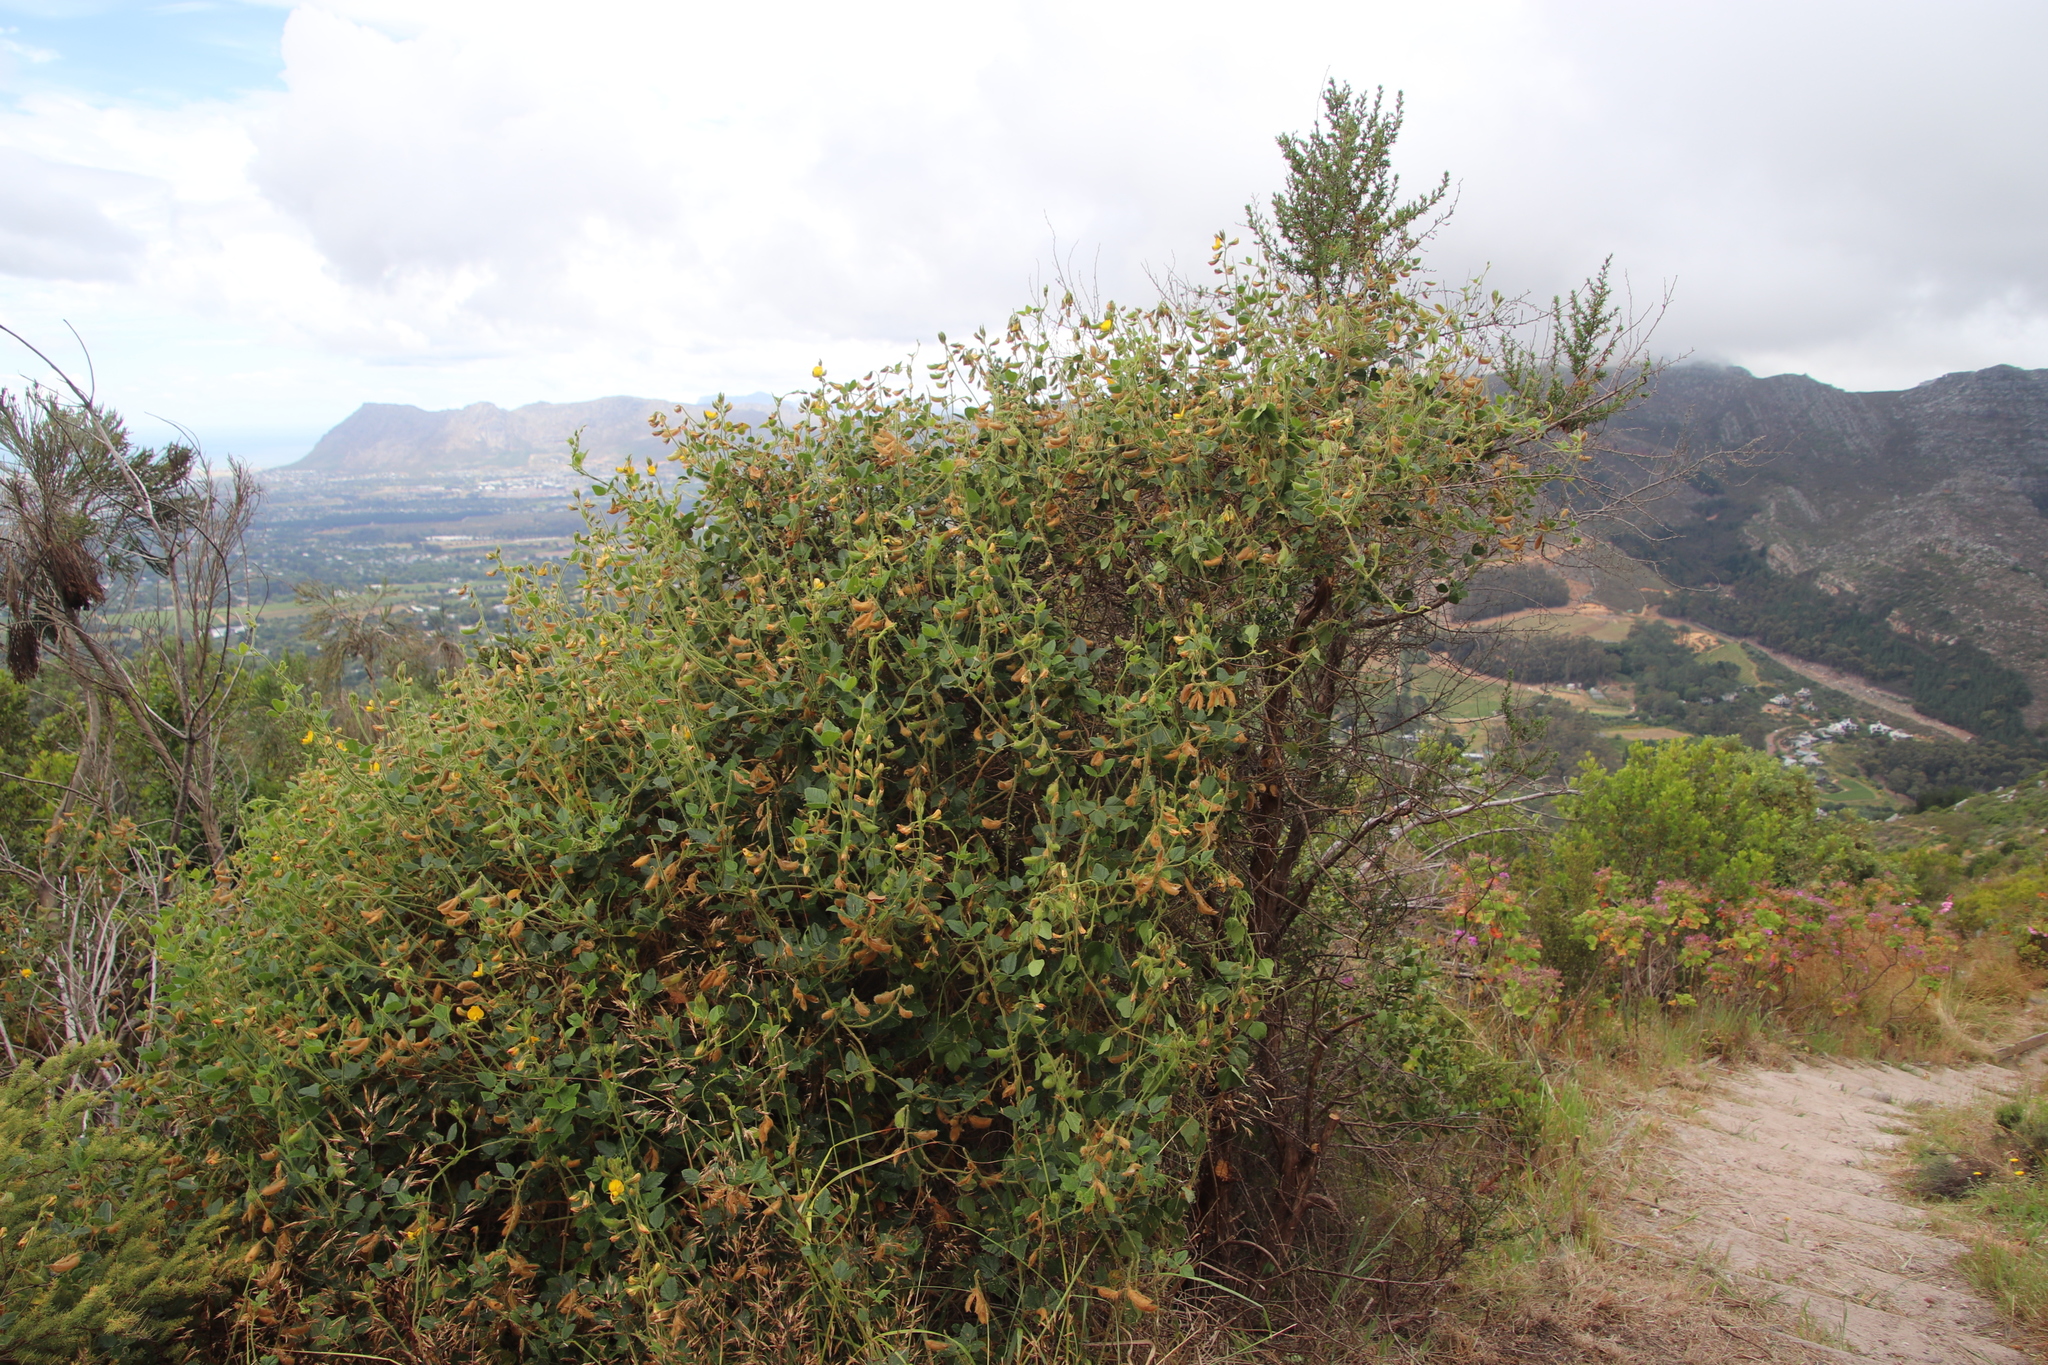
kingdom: Plantae
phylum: Tracheophyta
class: Magnoliopsida
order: Fabales
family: Fabaceae
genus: Bolusafra
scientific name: Bolusafra bituminosa
